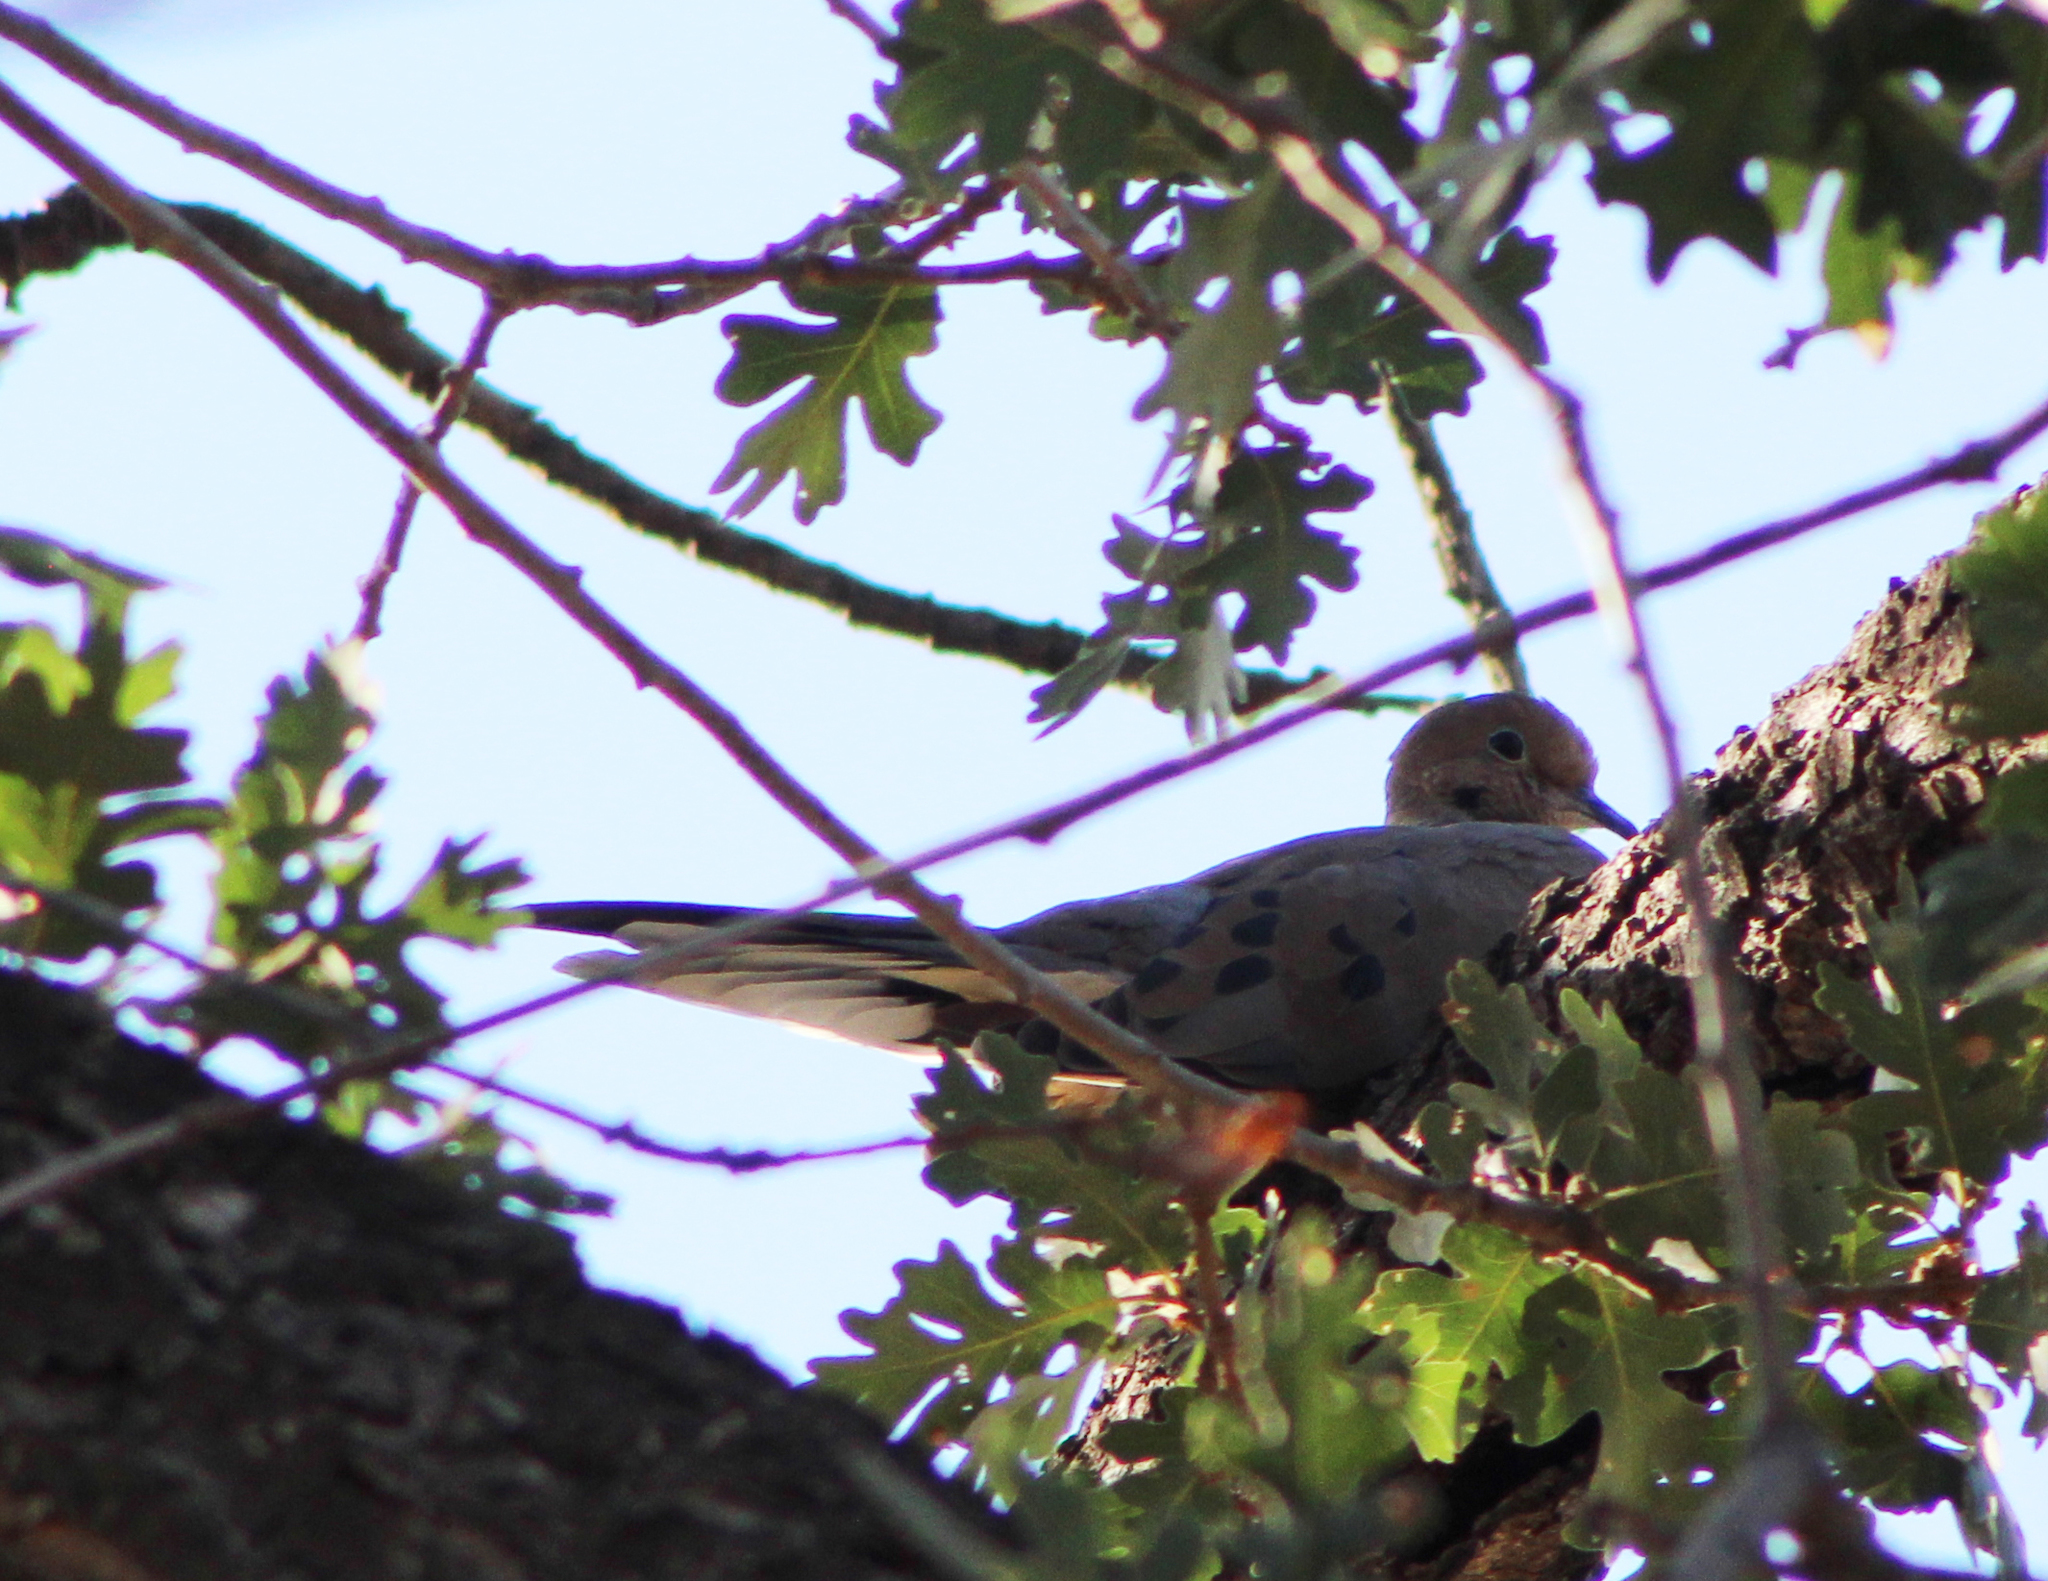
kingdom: Animalia
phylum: Chordata
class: Aves
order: Columbiformes
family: Columbidae
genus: Zenaida
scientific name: Zenaida macroura
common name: Mourning dove
